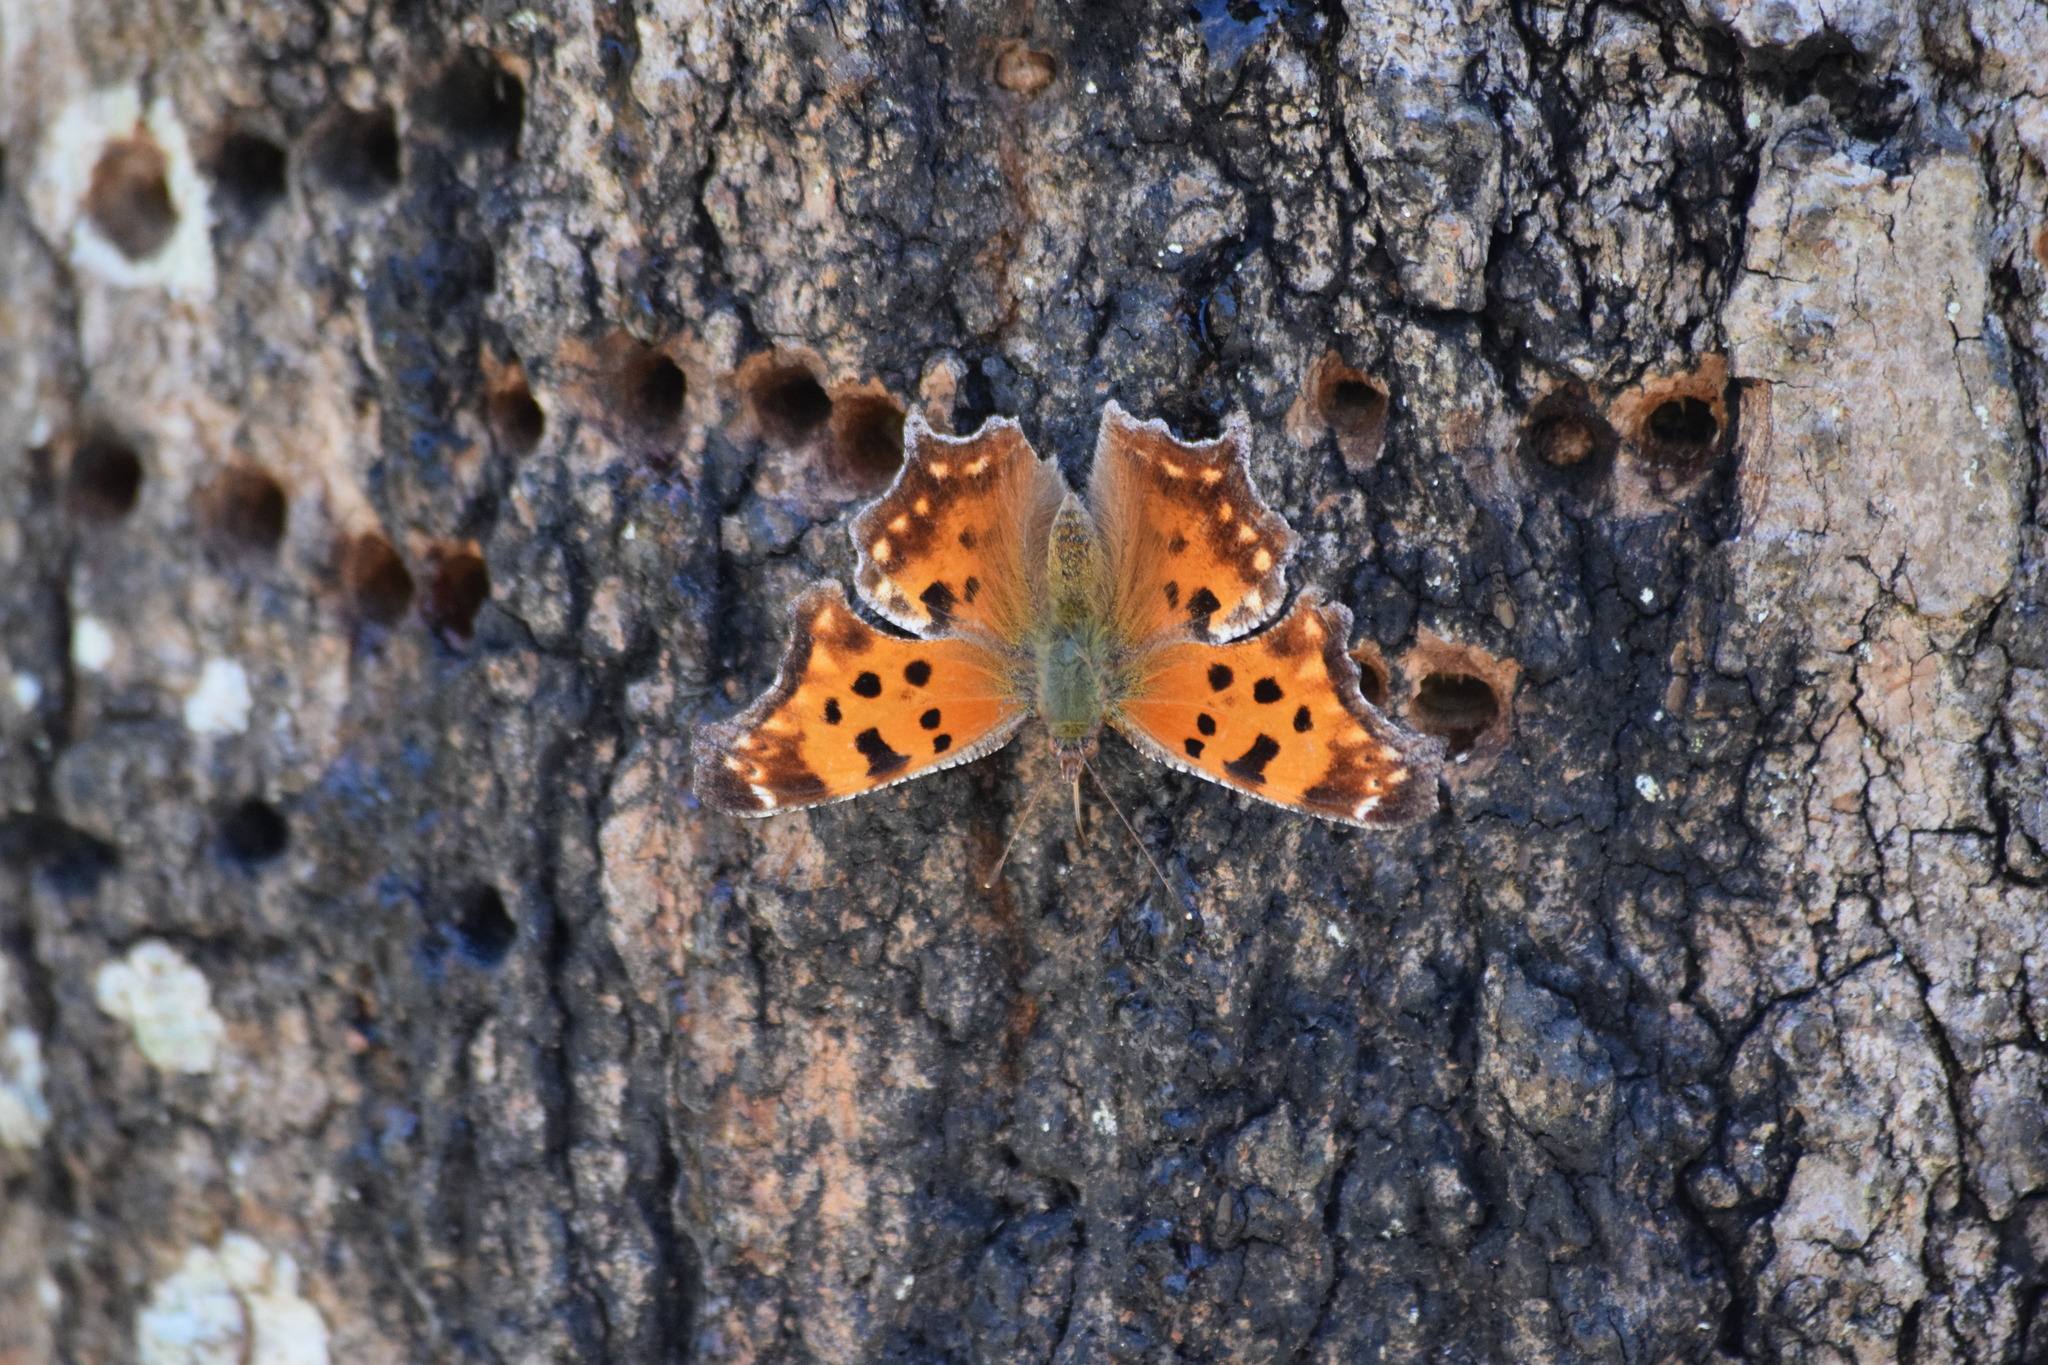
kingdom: Animalia
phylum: Arthropoda
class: Insecta
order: Lepidoptera
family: Nymphalidae
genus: Polygonia
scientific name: Polygonia comma
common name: Eastern comma
